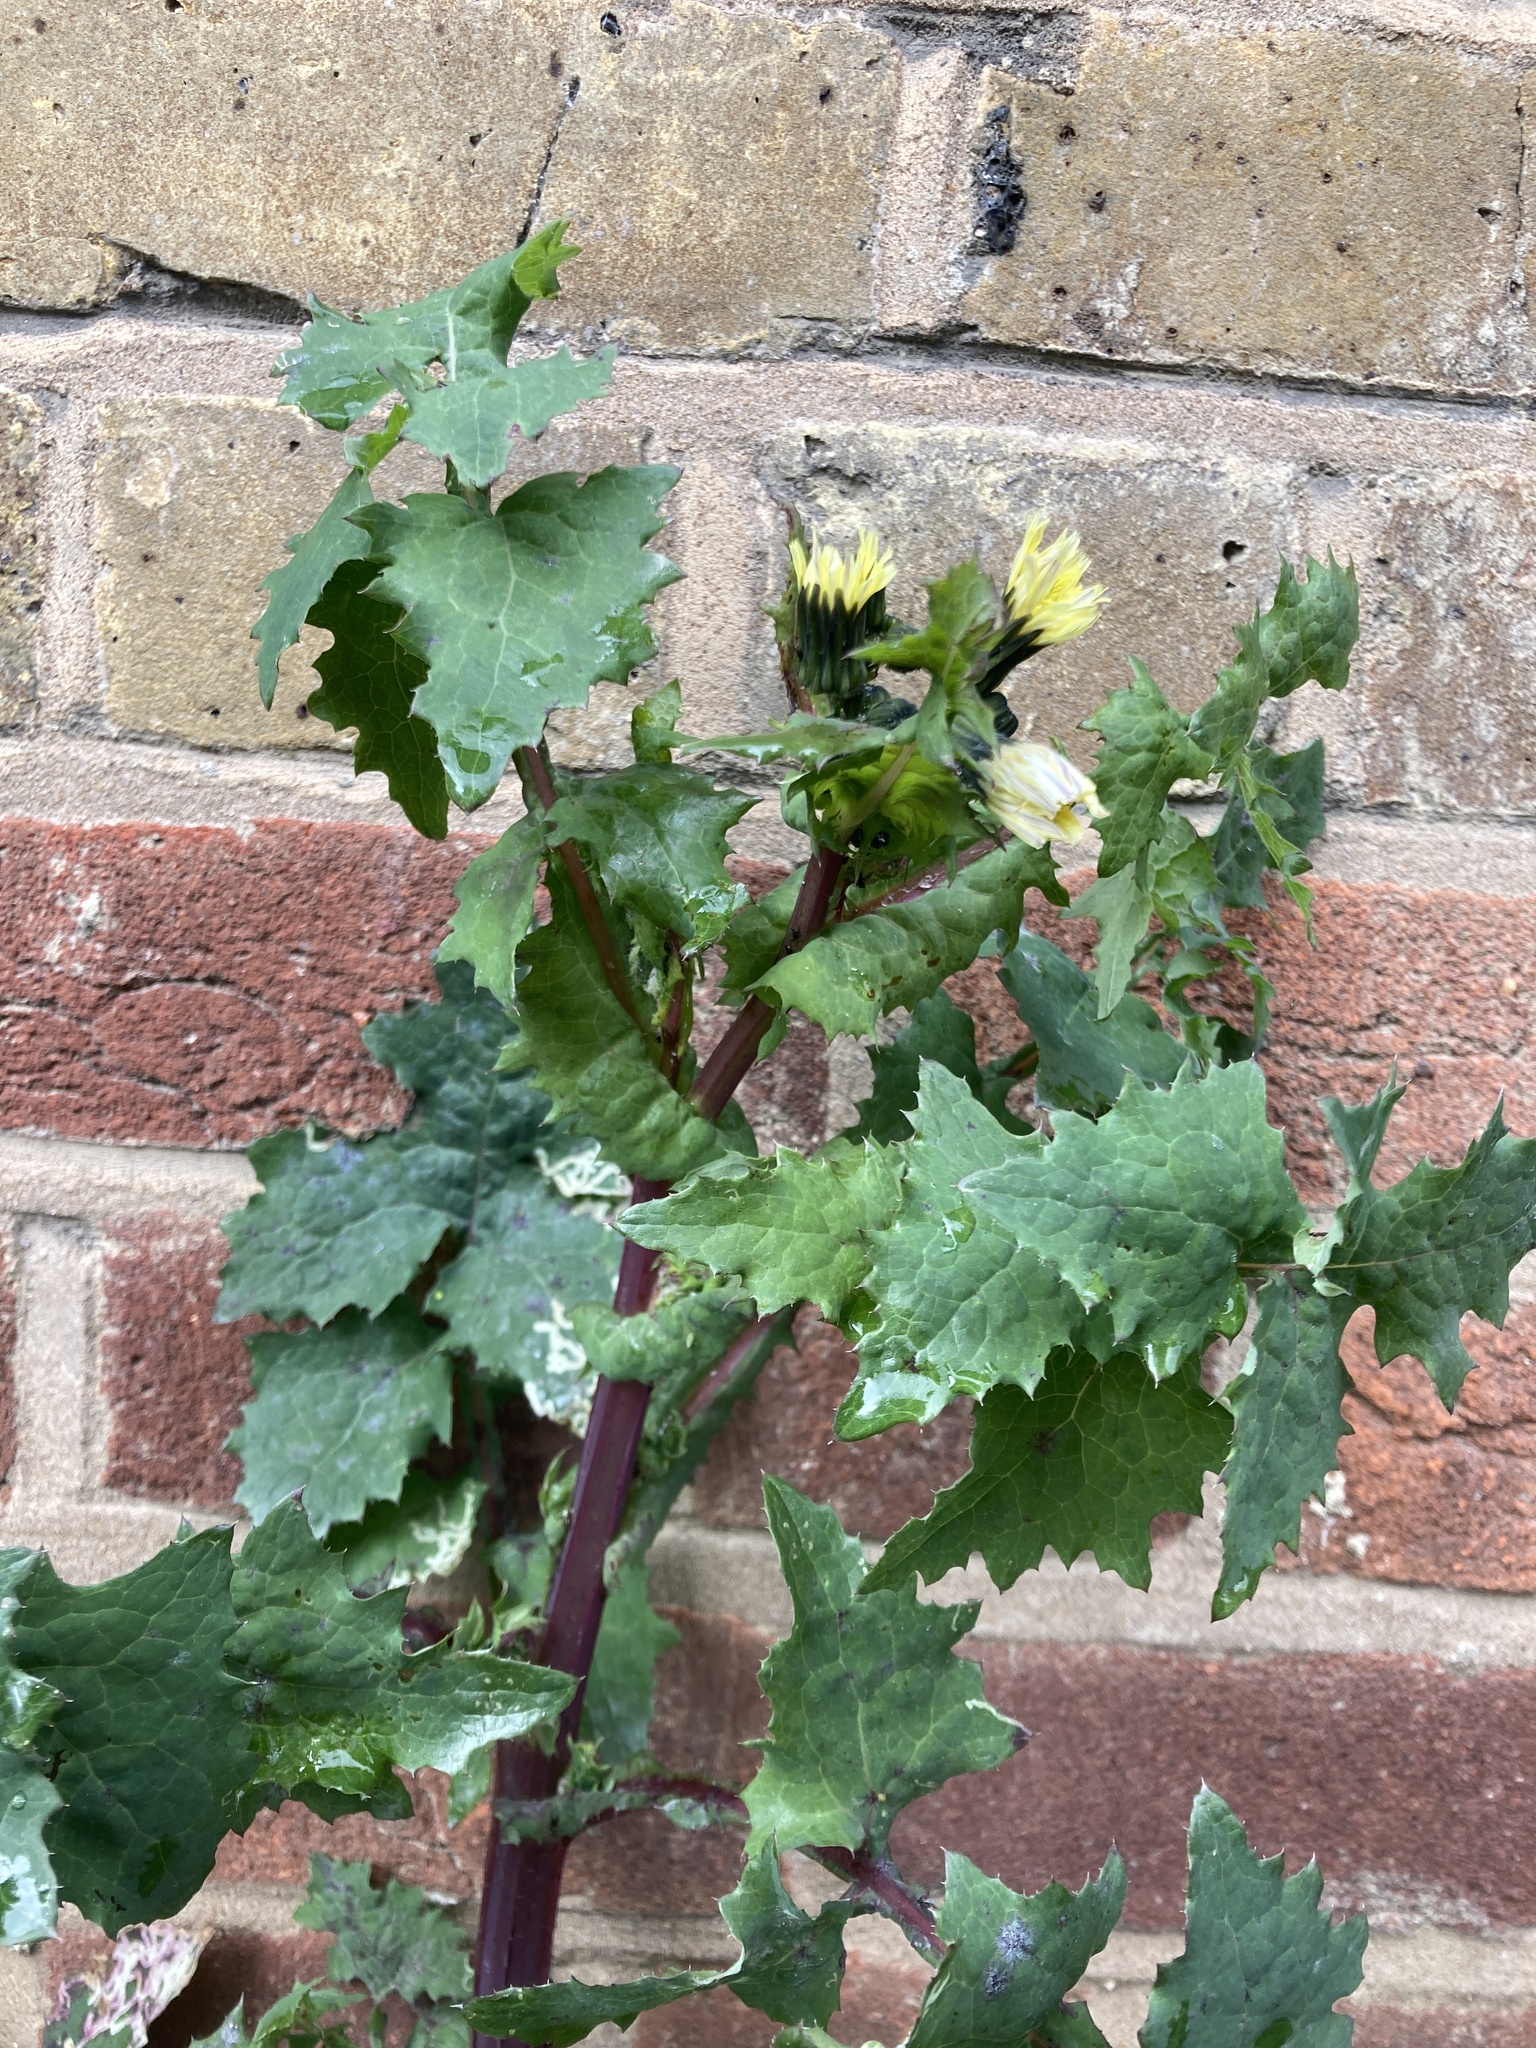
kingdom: Plantae
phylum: Tracheophyta
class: Magnoliopsida
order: Asterales
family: Asteraceae
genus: Sonchus
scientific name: Sonchus oleraceus
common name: Common sowthistle
